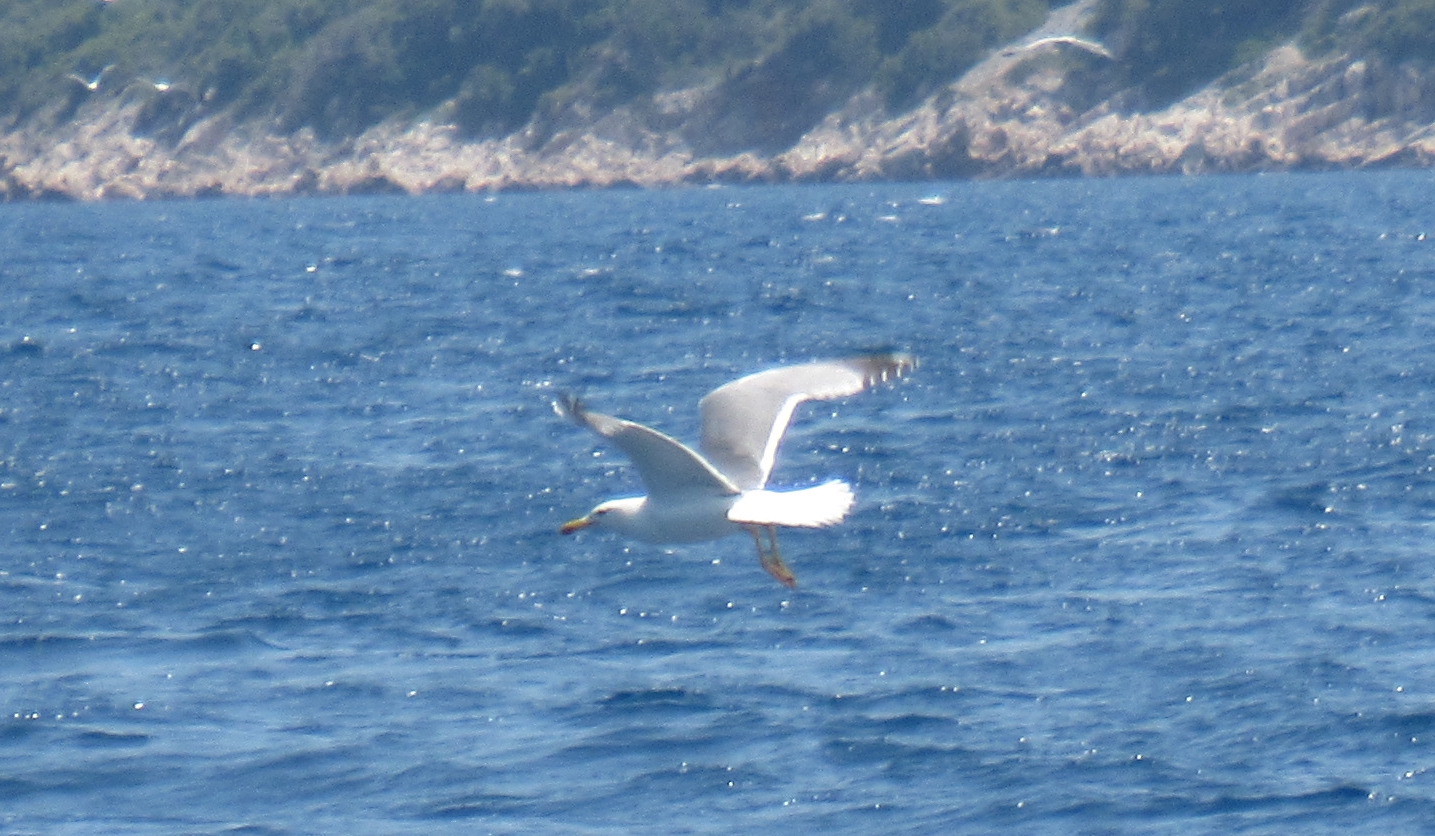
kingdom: Animalia
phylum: Chordata
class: Aves
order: Charadriiformes
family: Laridae
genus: Larus
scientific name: Larus michahellis
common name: Yellow-legged gull
